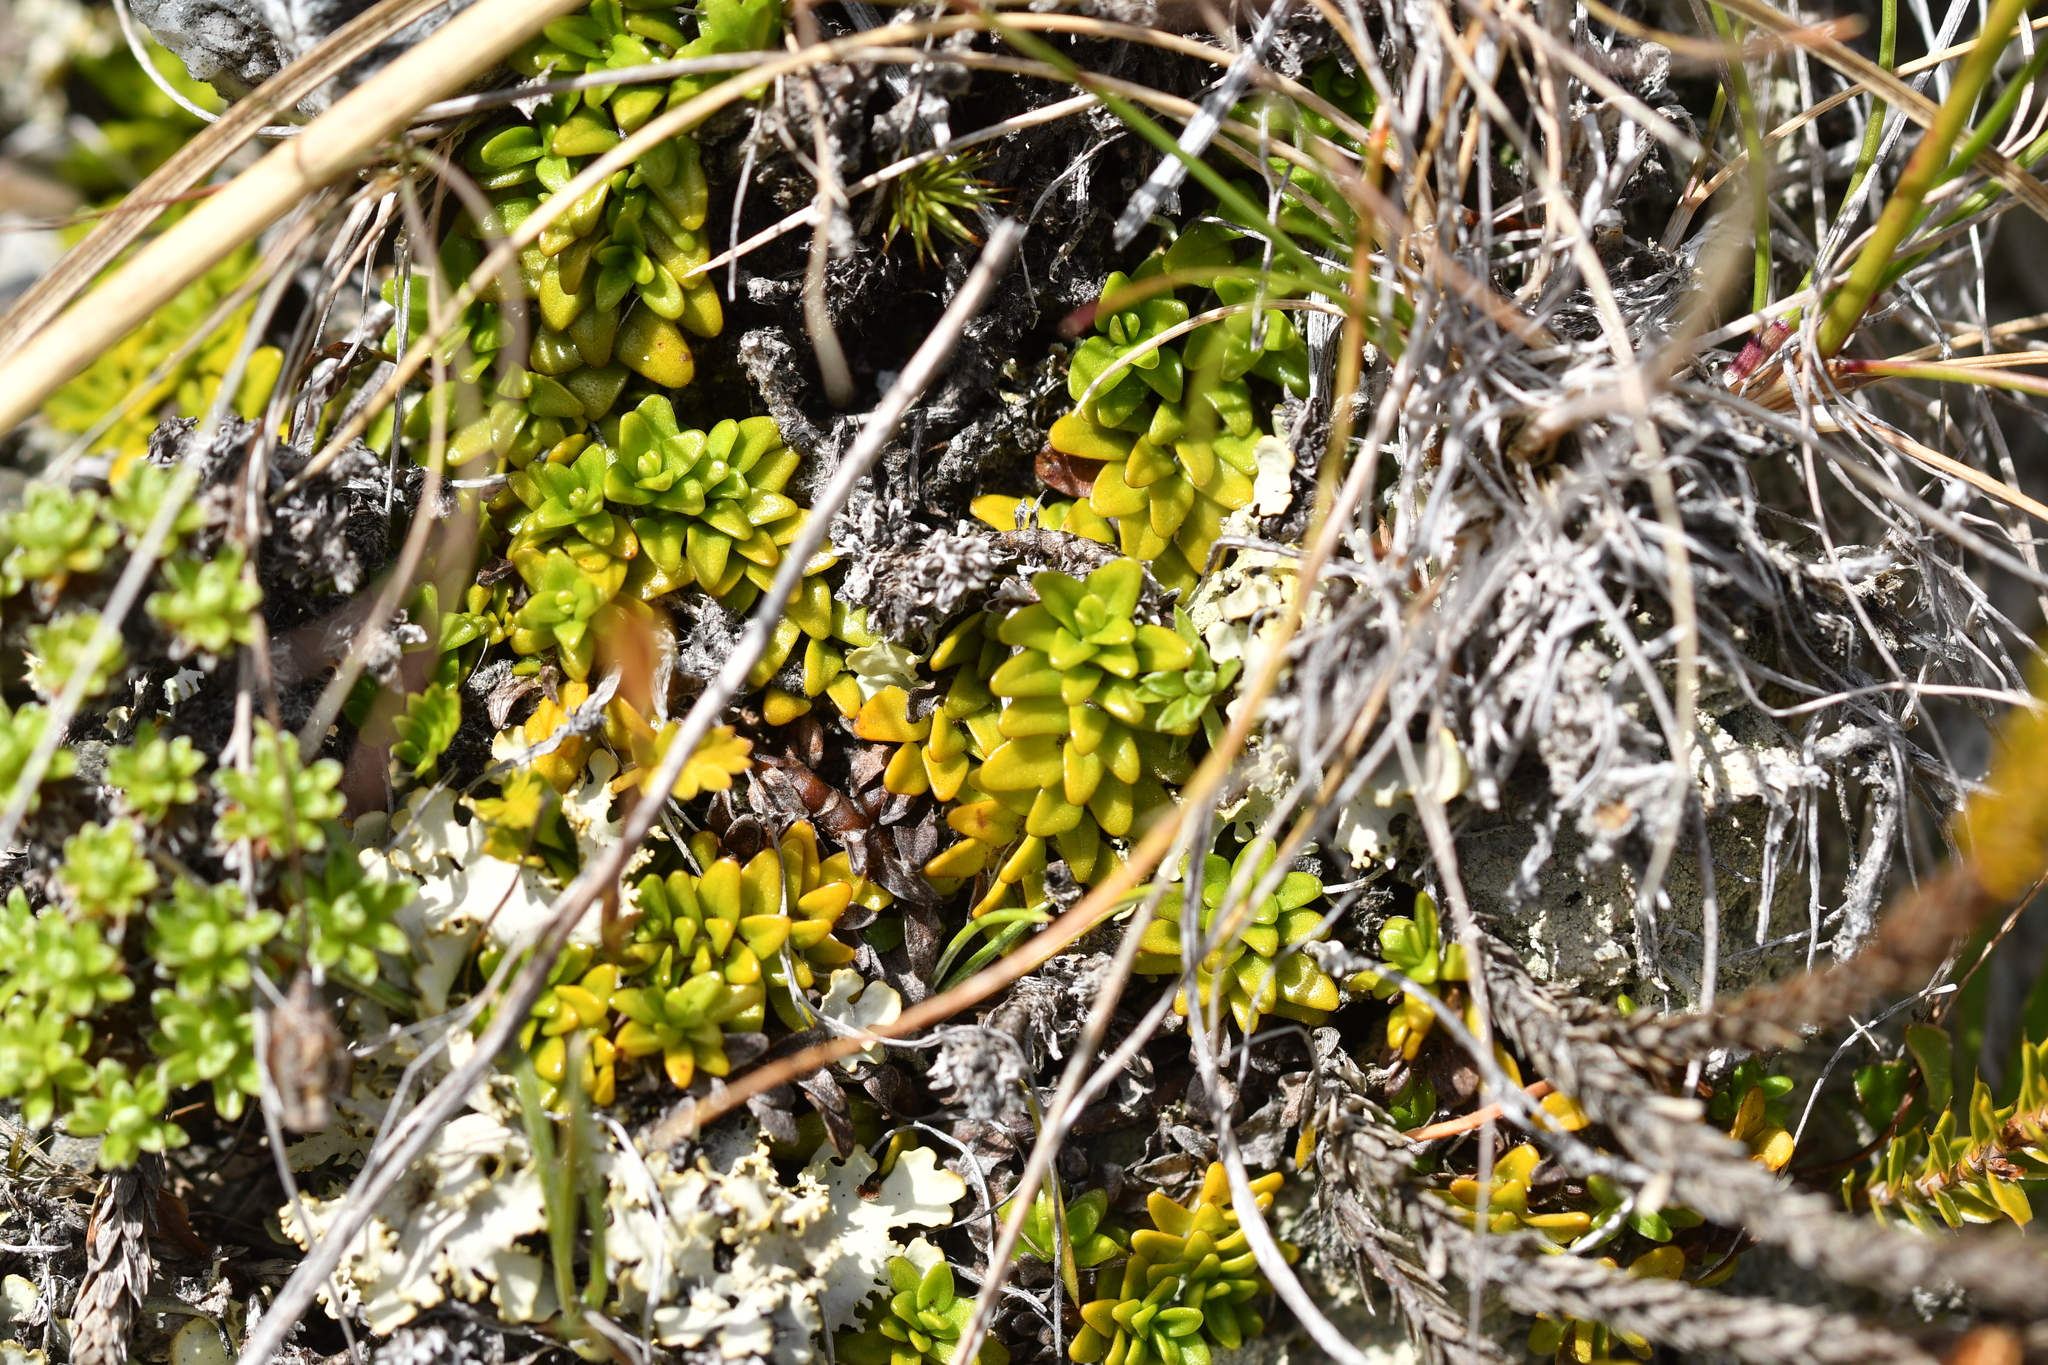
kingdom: Plantae
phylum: Tracheophyta
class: Magnoliopsida
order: Lamiales
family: Plantaginaceae
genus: Ourisia
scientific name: Ourisia caespitosa
